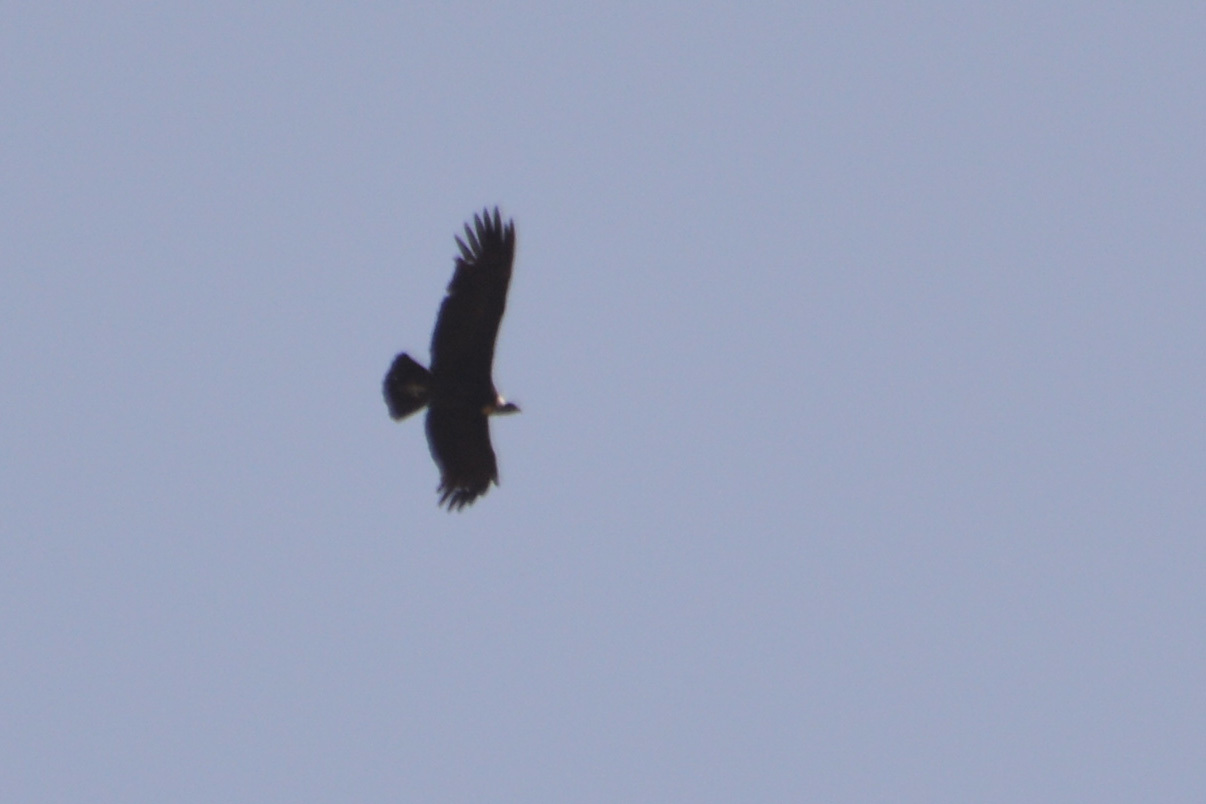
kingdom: Animalia
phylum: Chordata
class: Aves
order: Accipitriformes
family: Cathartidae
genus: Vultur
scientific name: Vultur gryphus
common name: Andean condor
